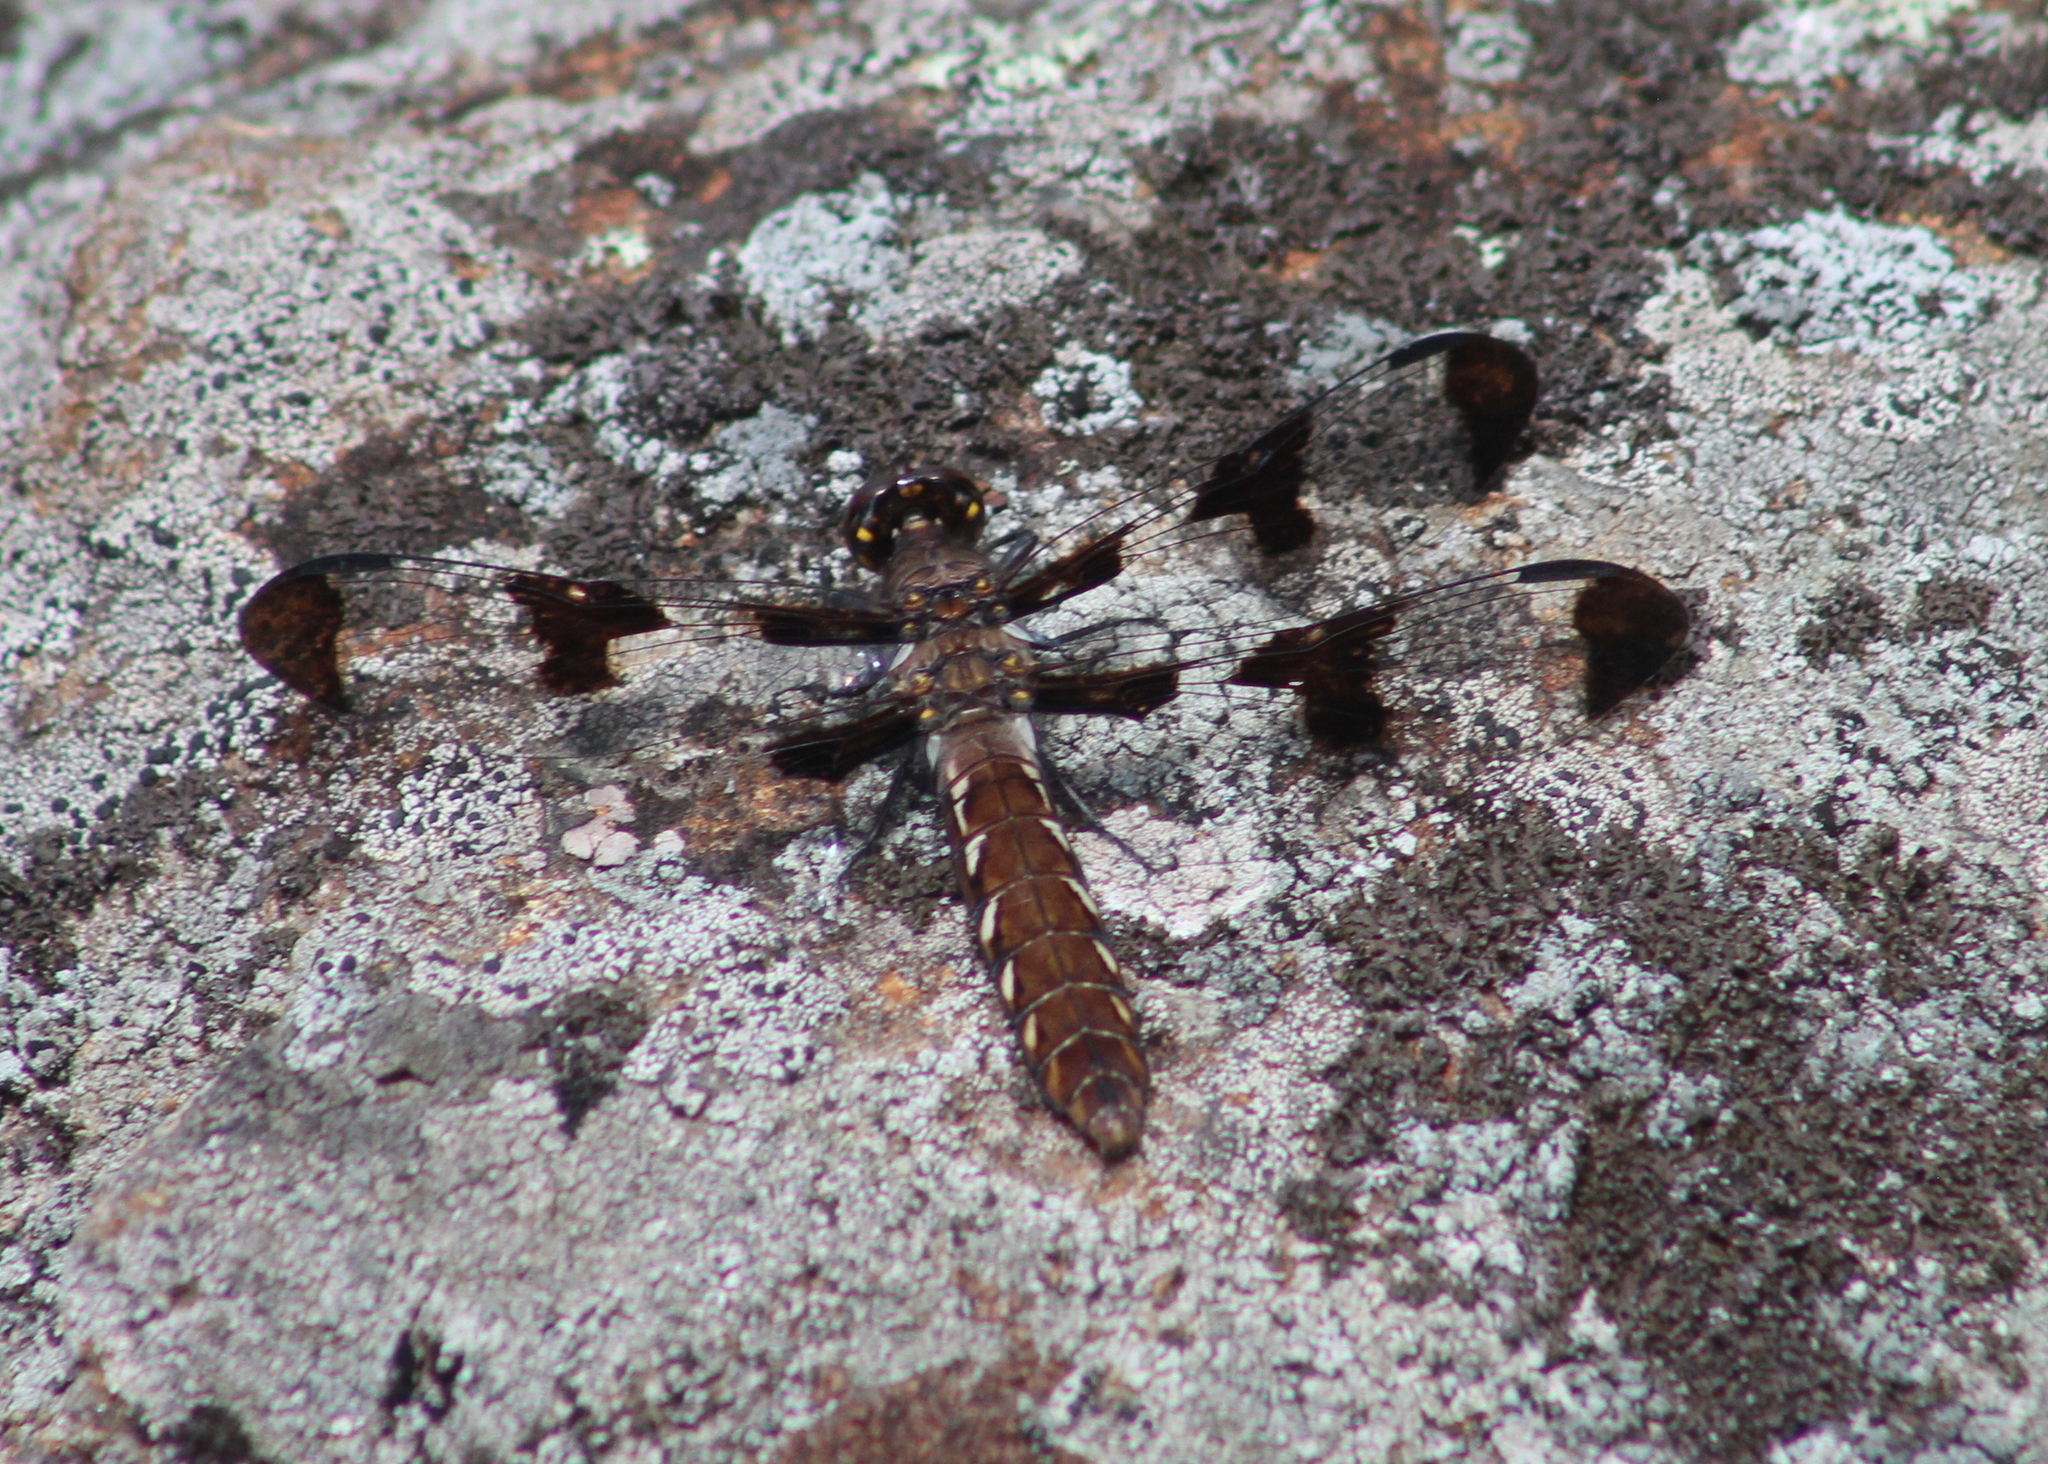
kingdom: Animalia
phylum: Arthropoda
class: Insecta
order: Odonata
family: Libellulidae
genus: Plathemis
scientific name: Plathemis lydia
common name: Common whitetail
